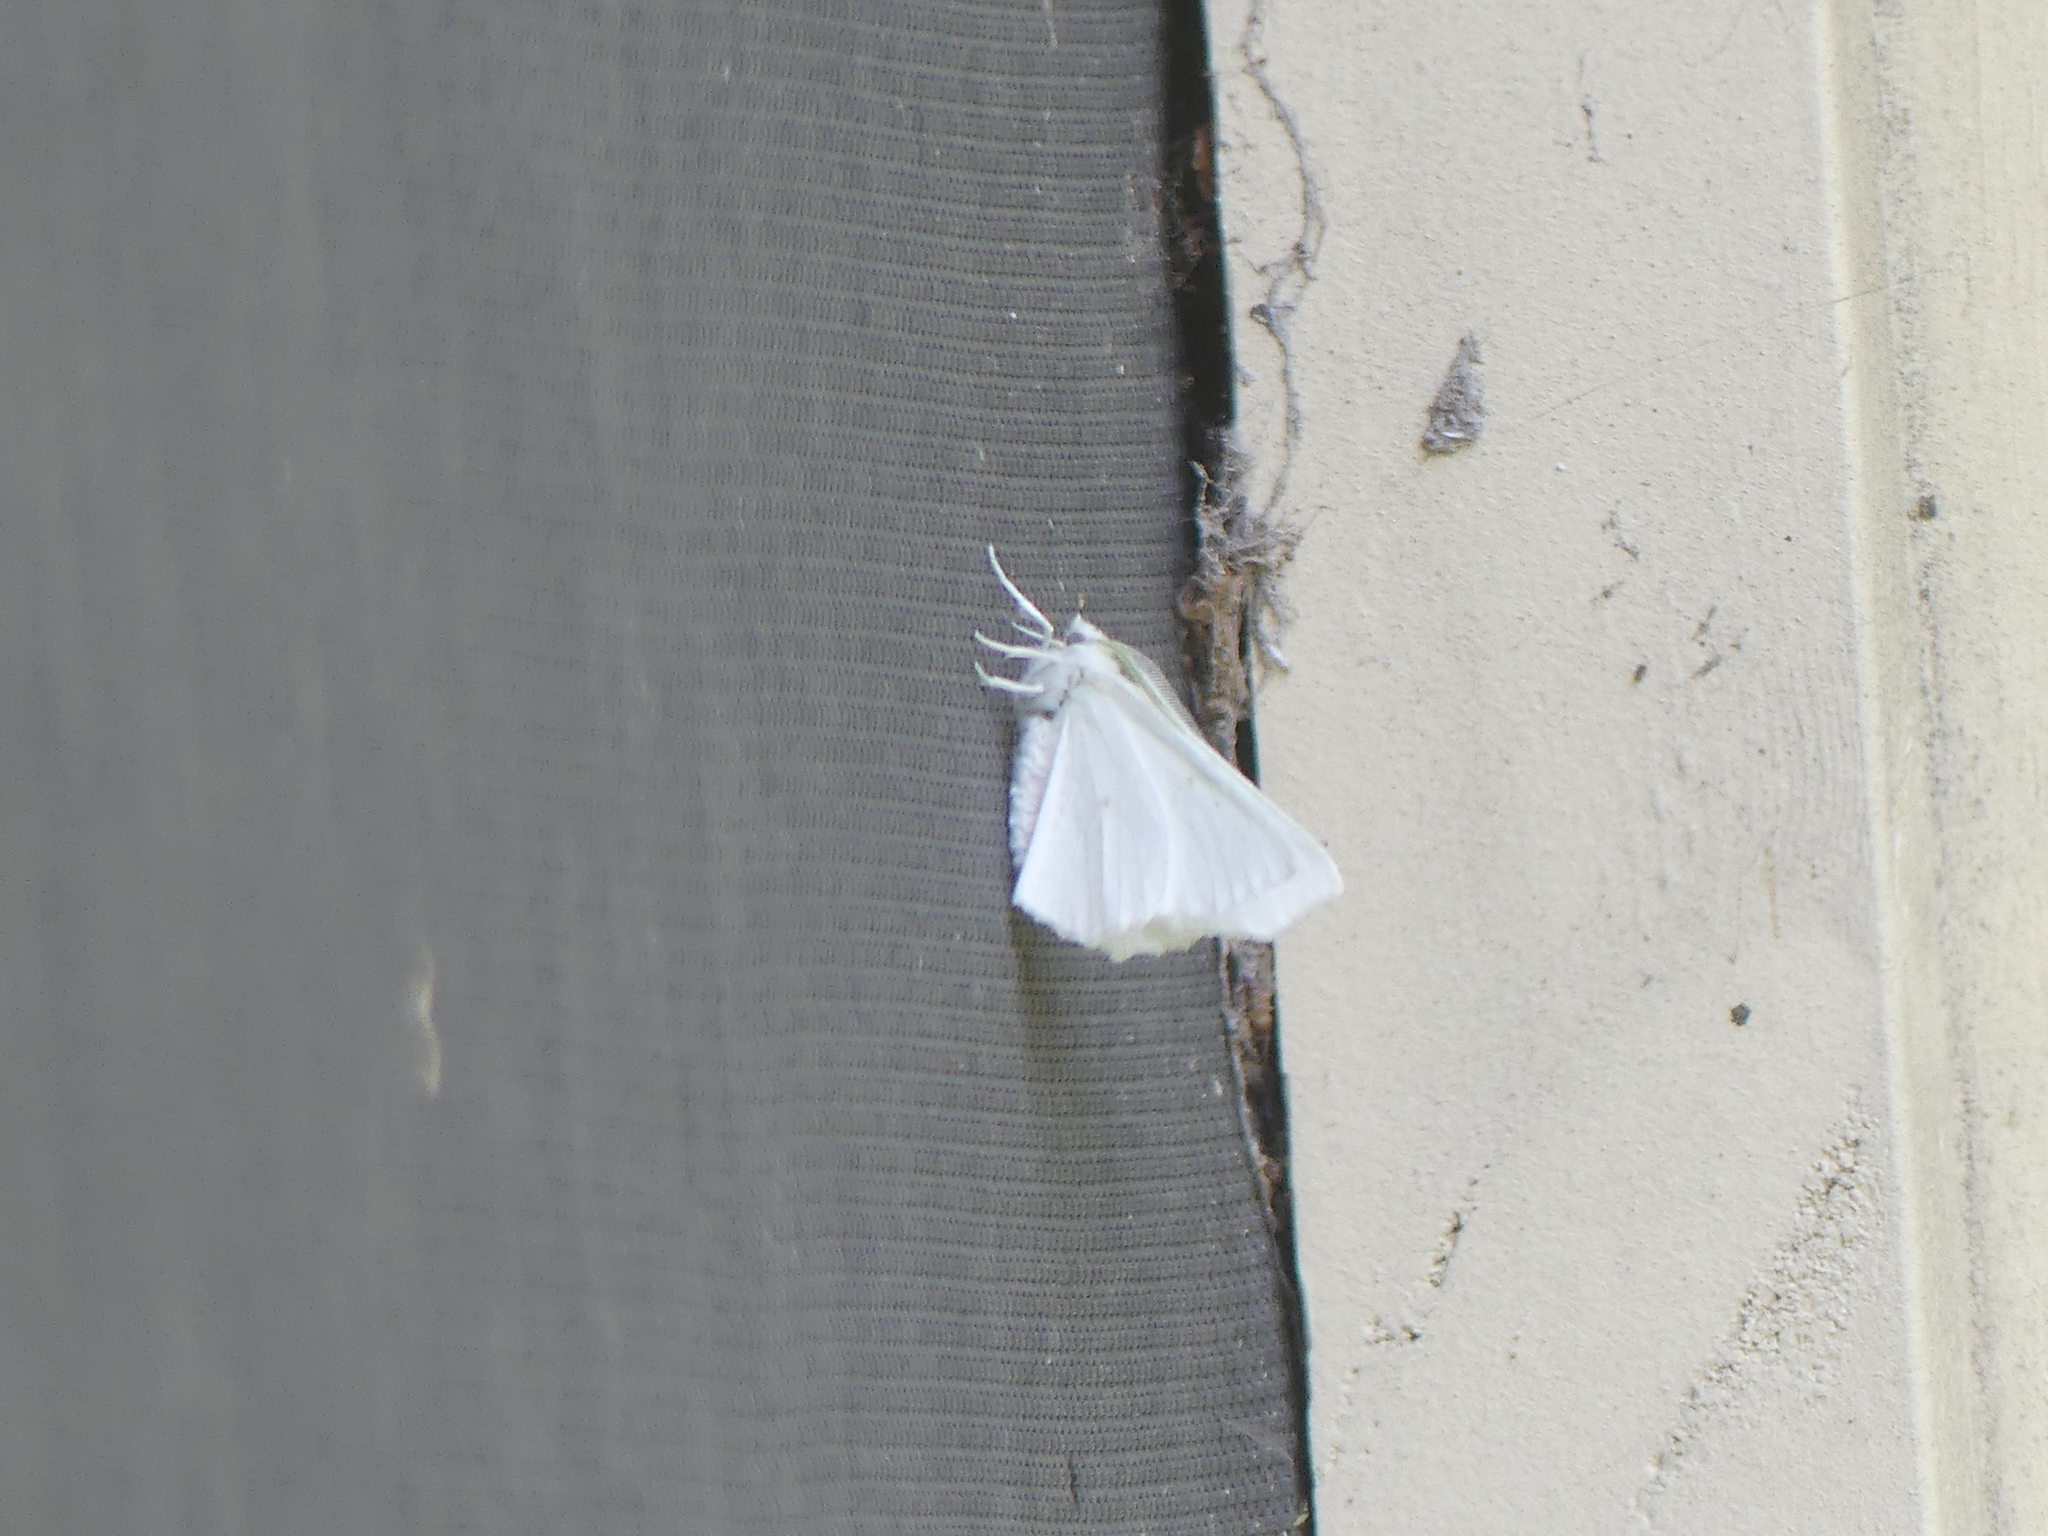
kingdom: Animalia
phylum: Arthropoda
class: Insecta
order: Lepidoptera
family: Geometridae
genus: Ennomos
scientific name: Ennomos subsignaria
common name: Elm spanworm
